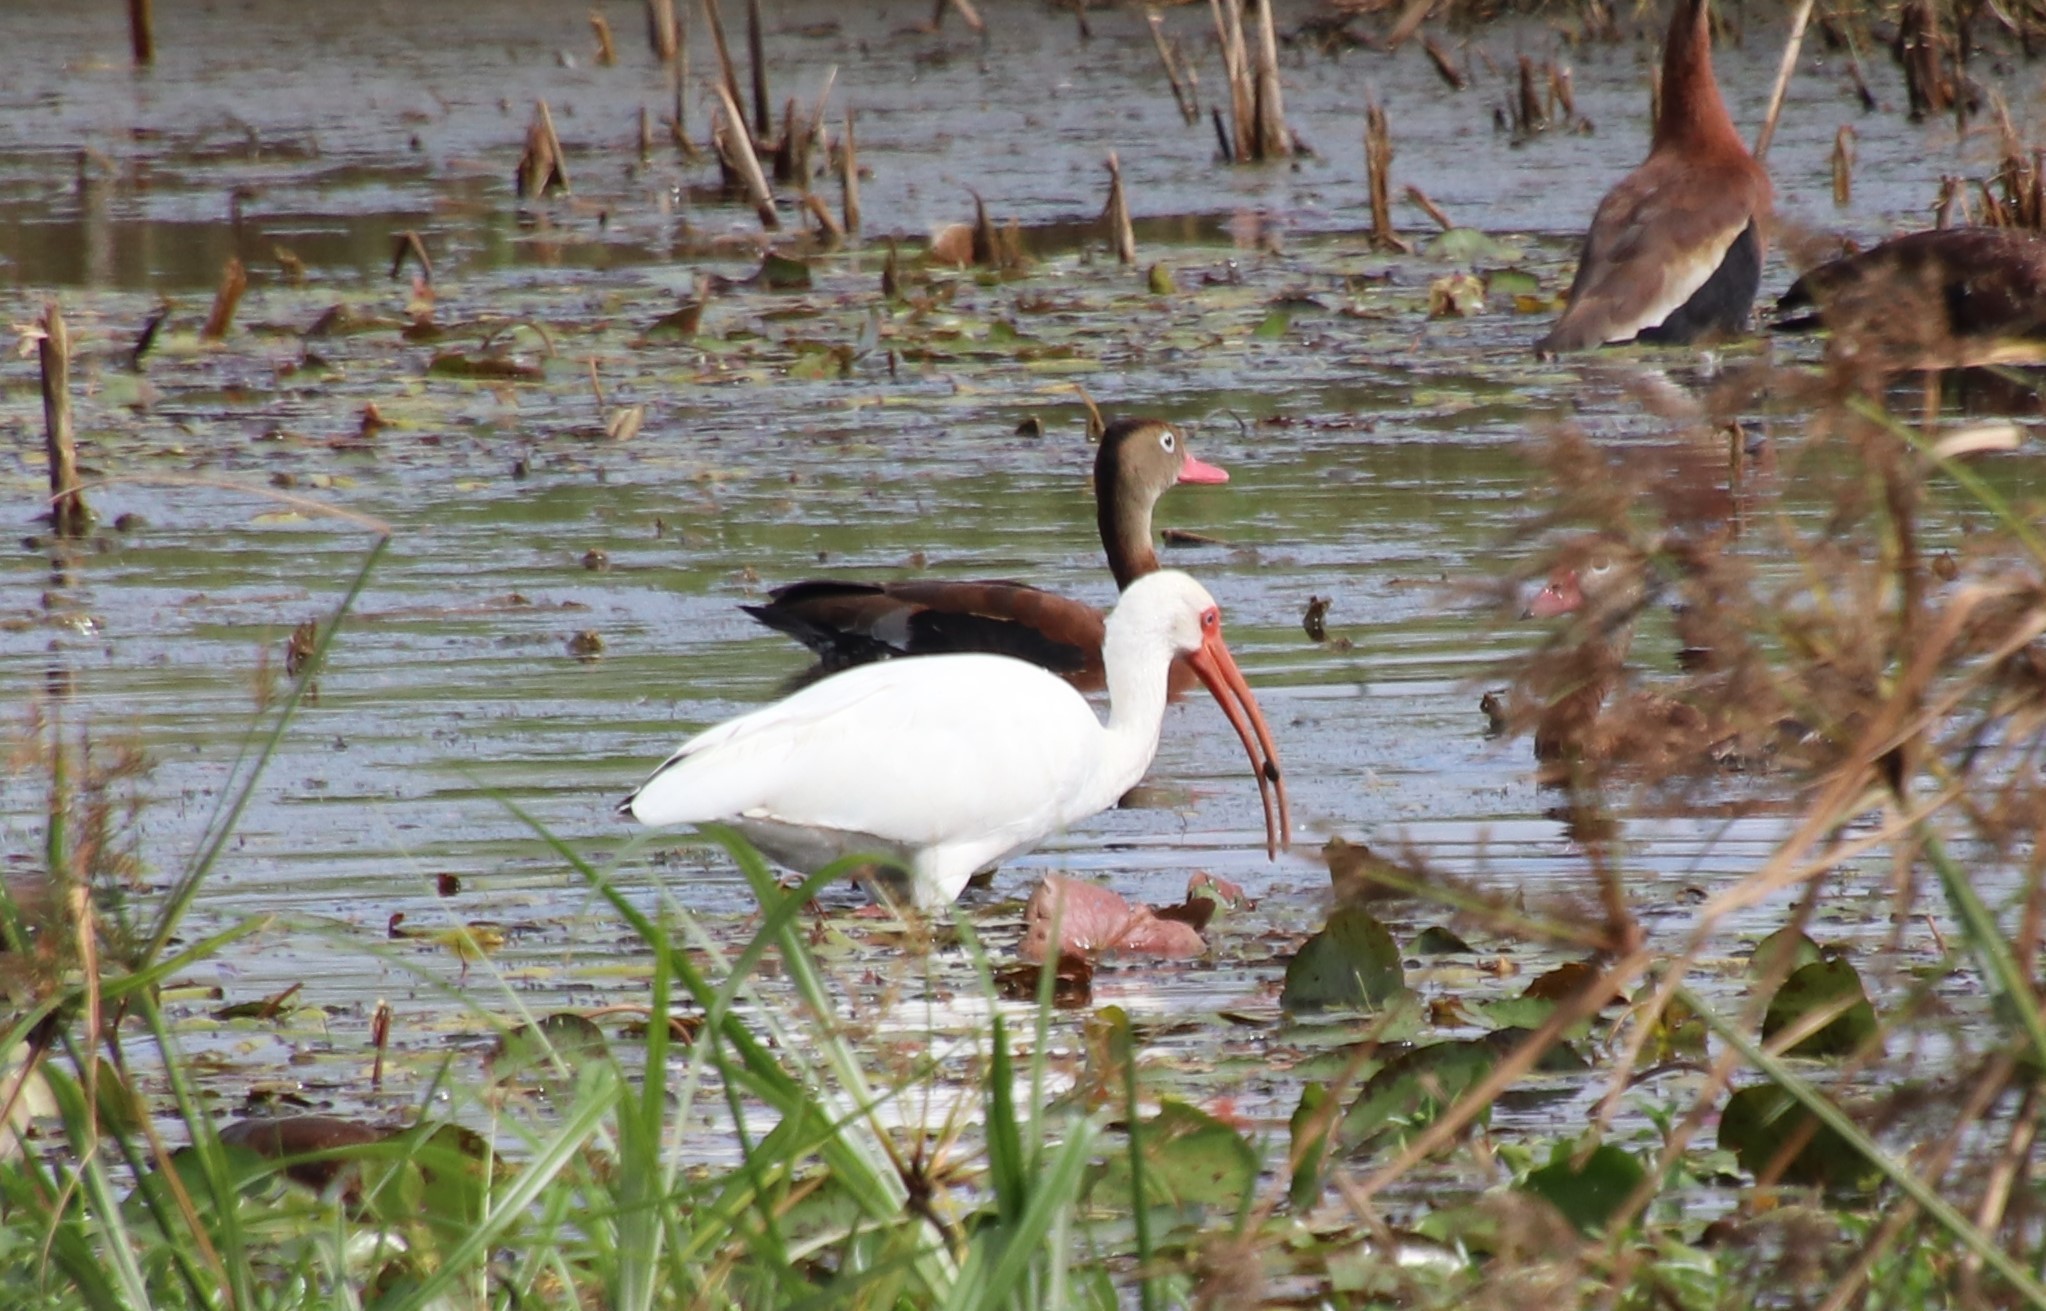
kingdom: Animalia
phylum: Chordata
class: Aves
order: Pelecaniformes
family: Threskiornithidae
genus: Eudocimus
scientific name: Eudocimus albus
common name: White ibis
